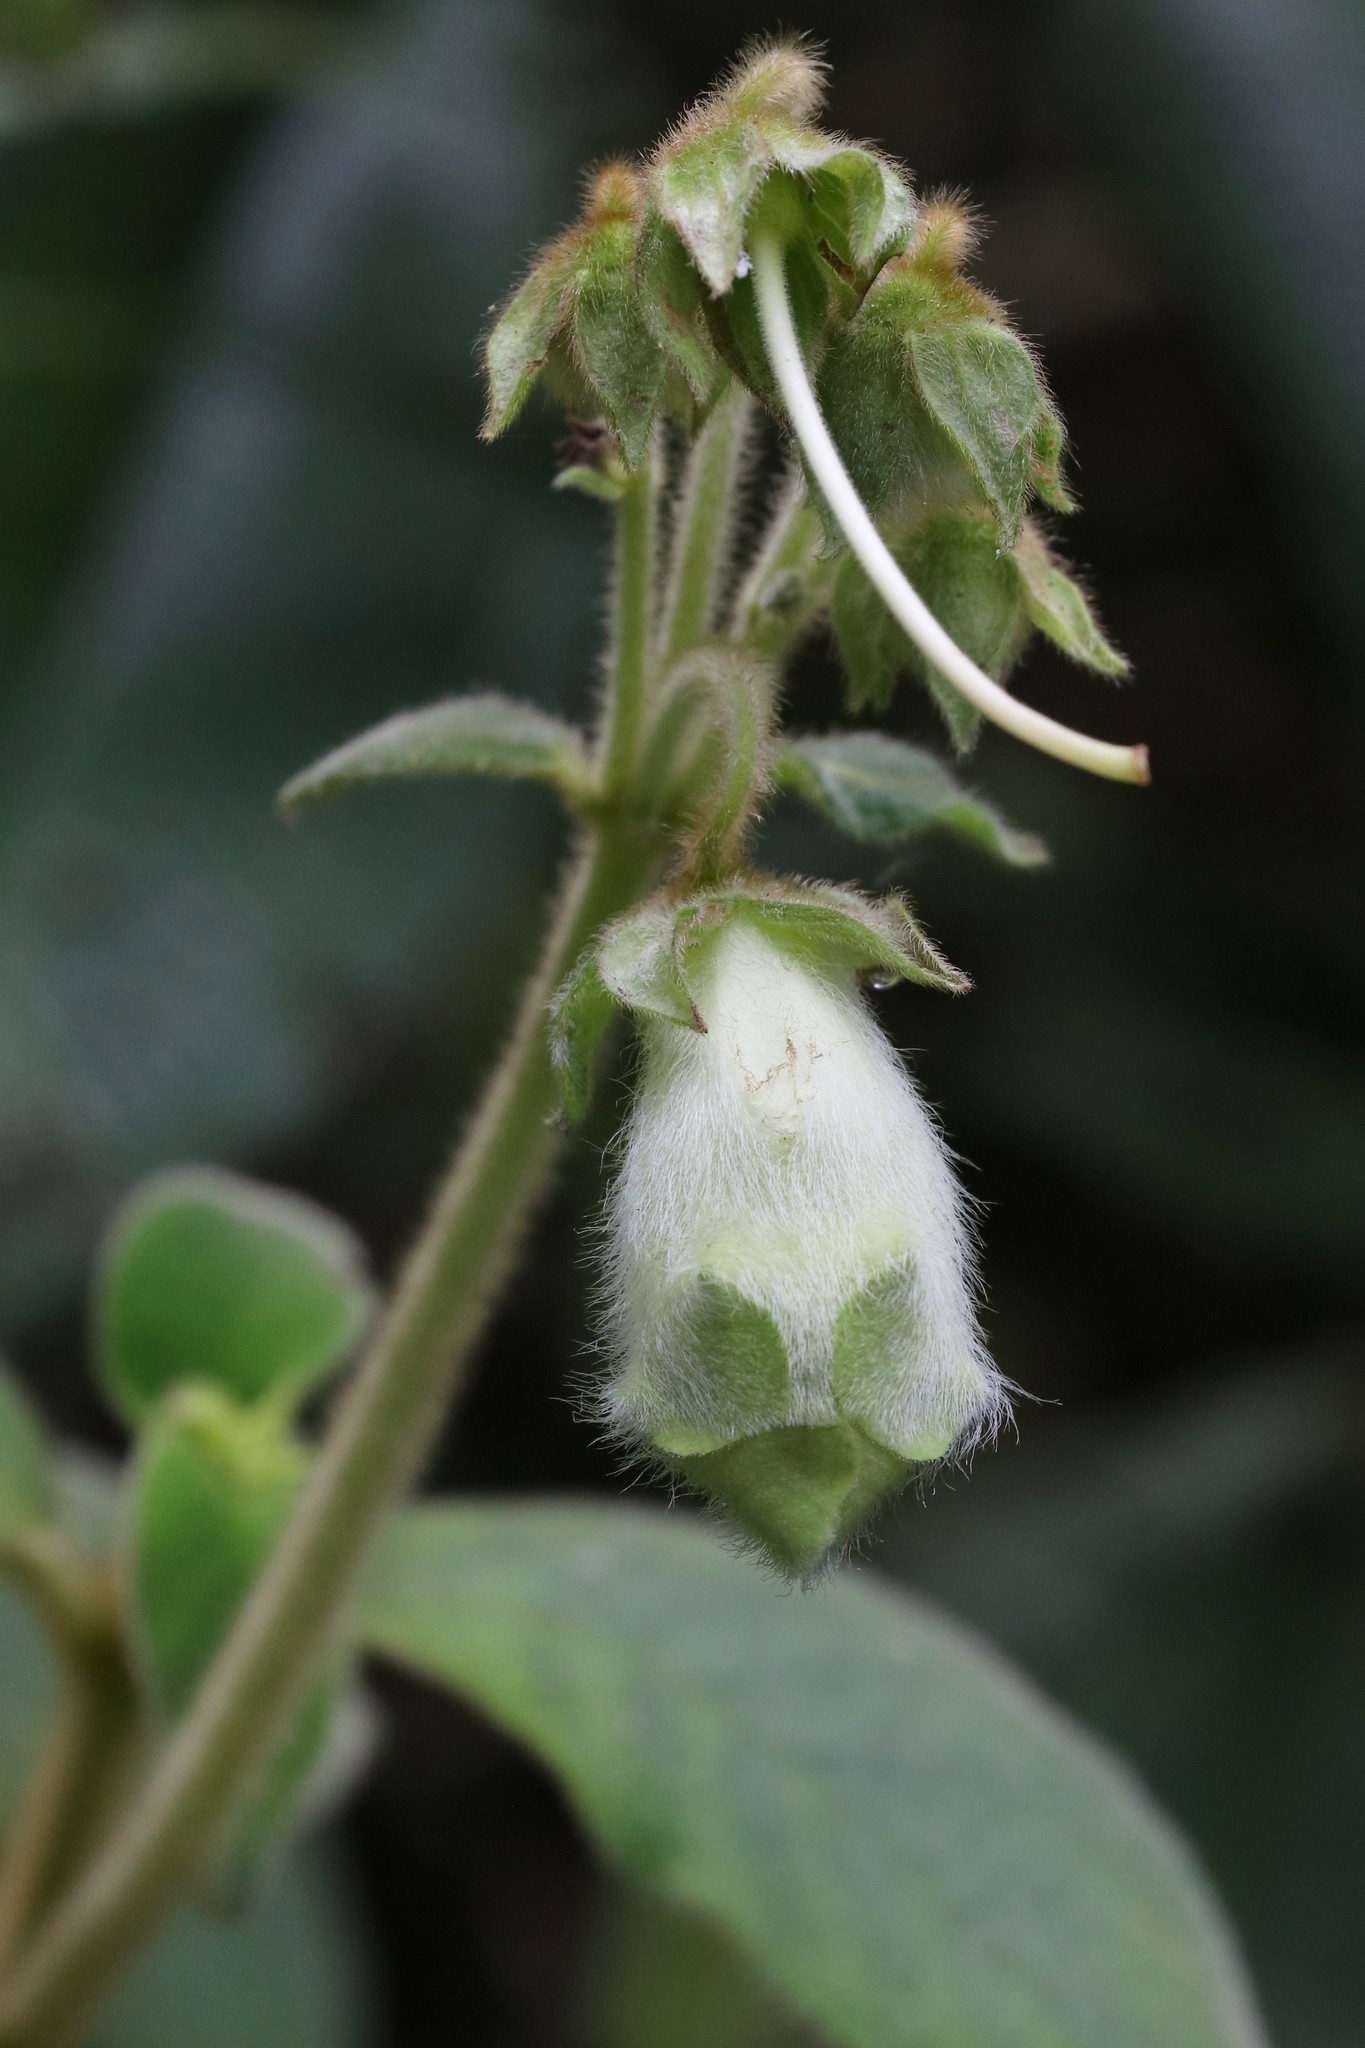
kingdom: Plantae
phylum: Tracheophyta
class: Magnoliopsida
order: Lamiales
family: Gesneriaceae
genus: Kohleria
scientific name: Kohleria tigridia
